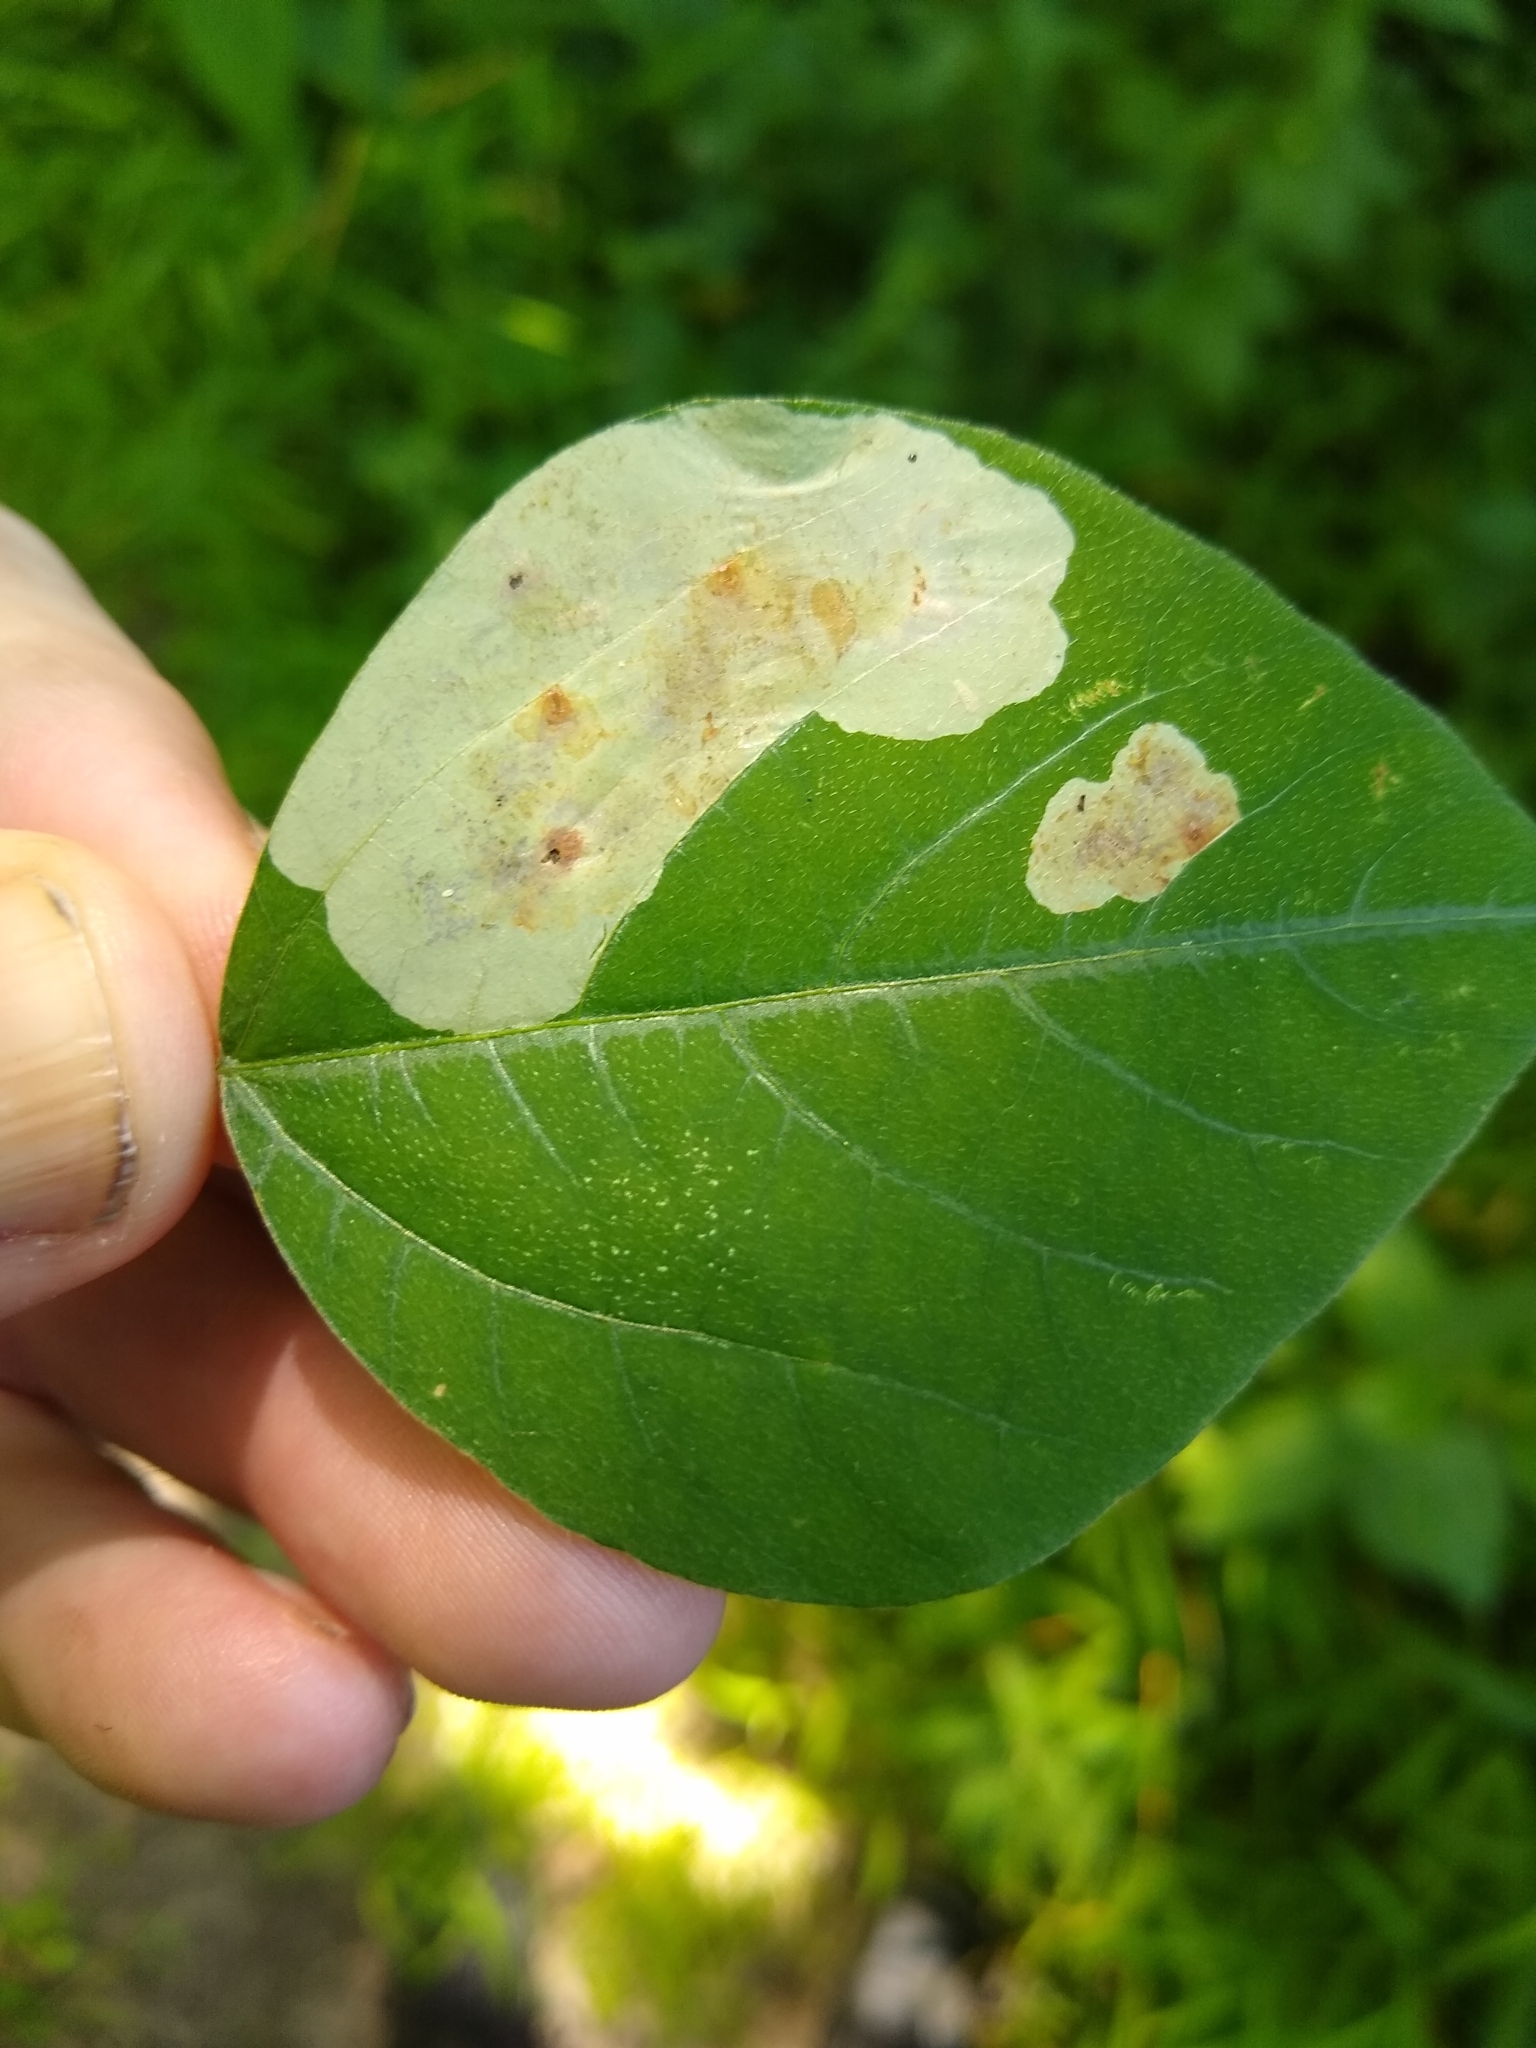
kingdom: Animalia
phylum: Arthropoda
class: Insecta
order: Lepidoptera
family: Gracillariidae
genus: Leucanthiza
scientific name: Leucanthiza amphicarpeaefoliella
